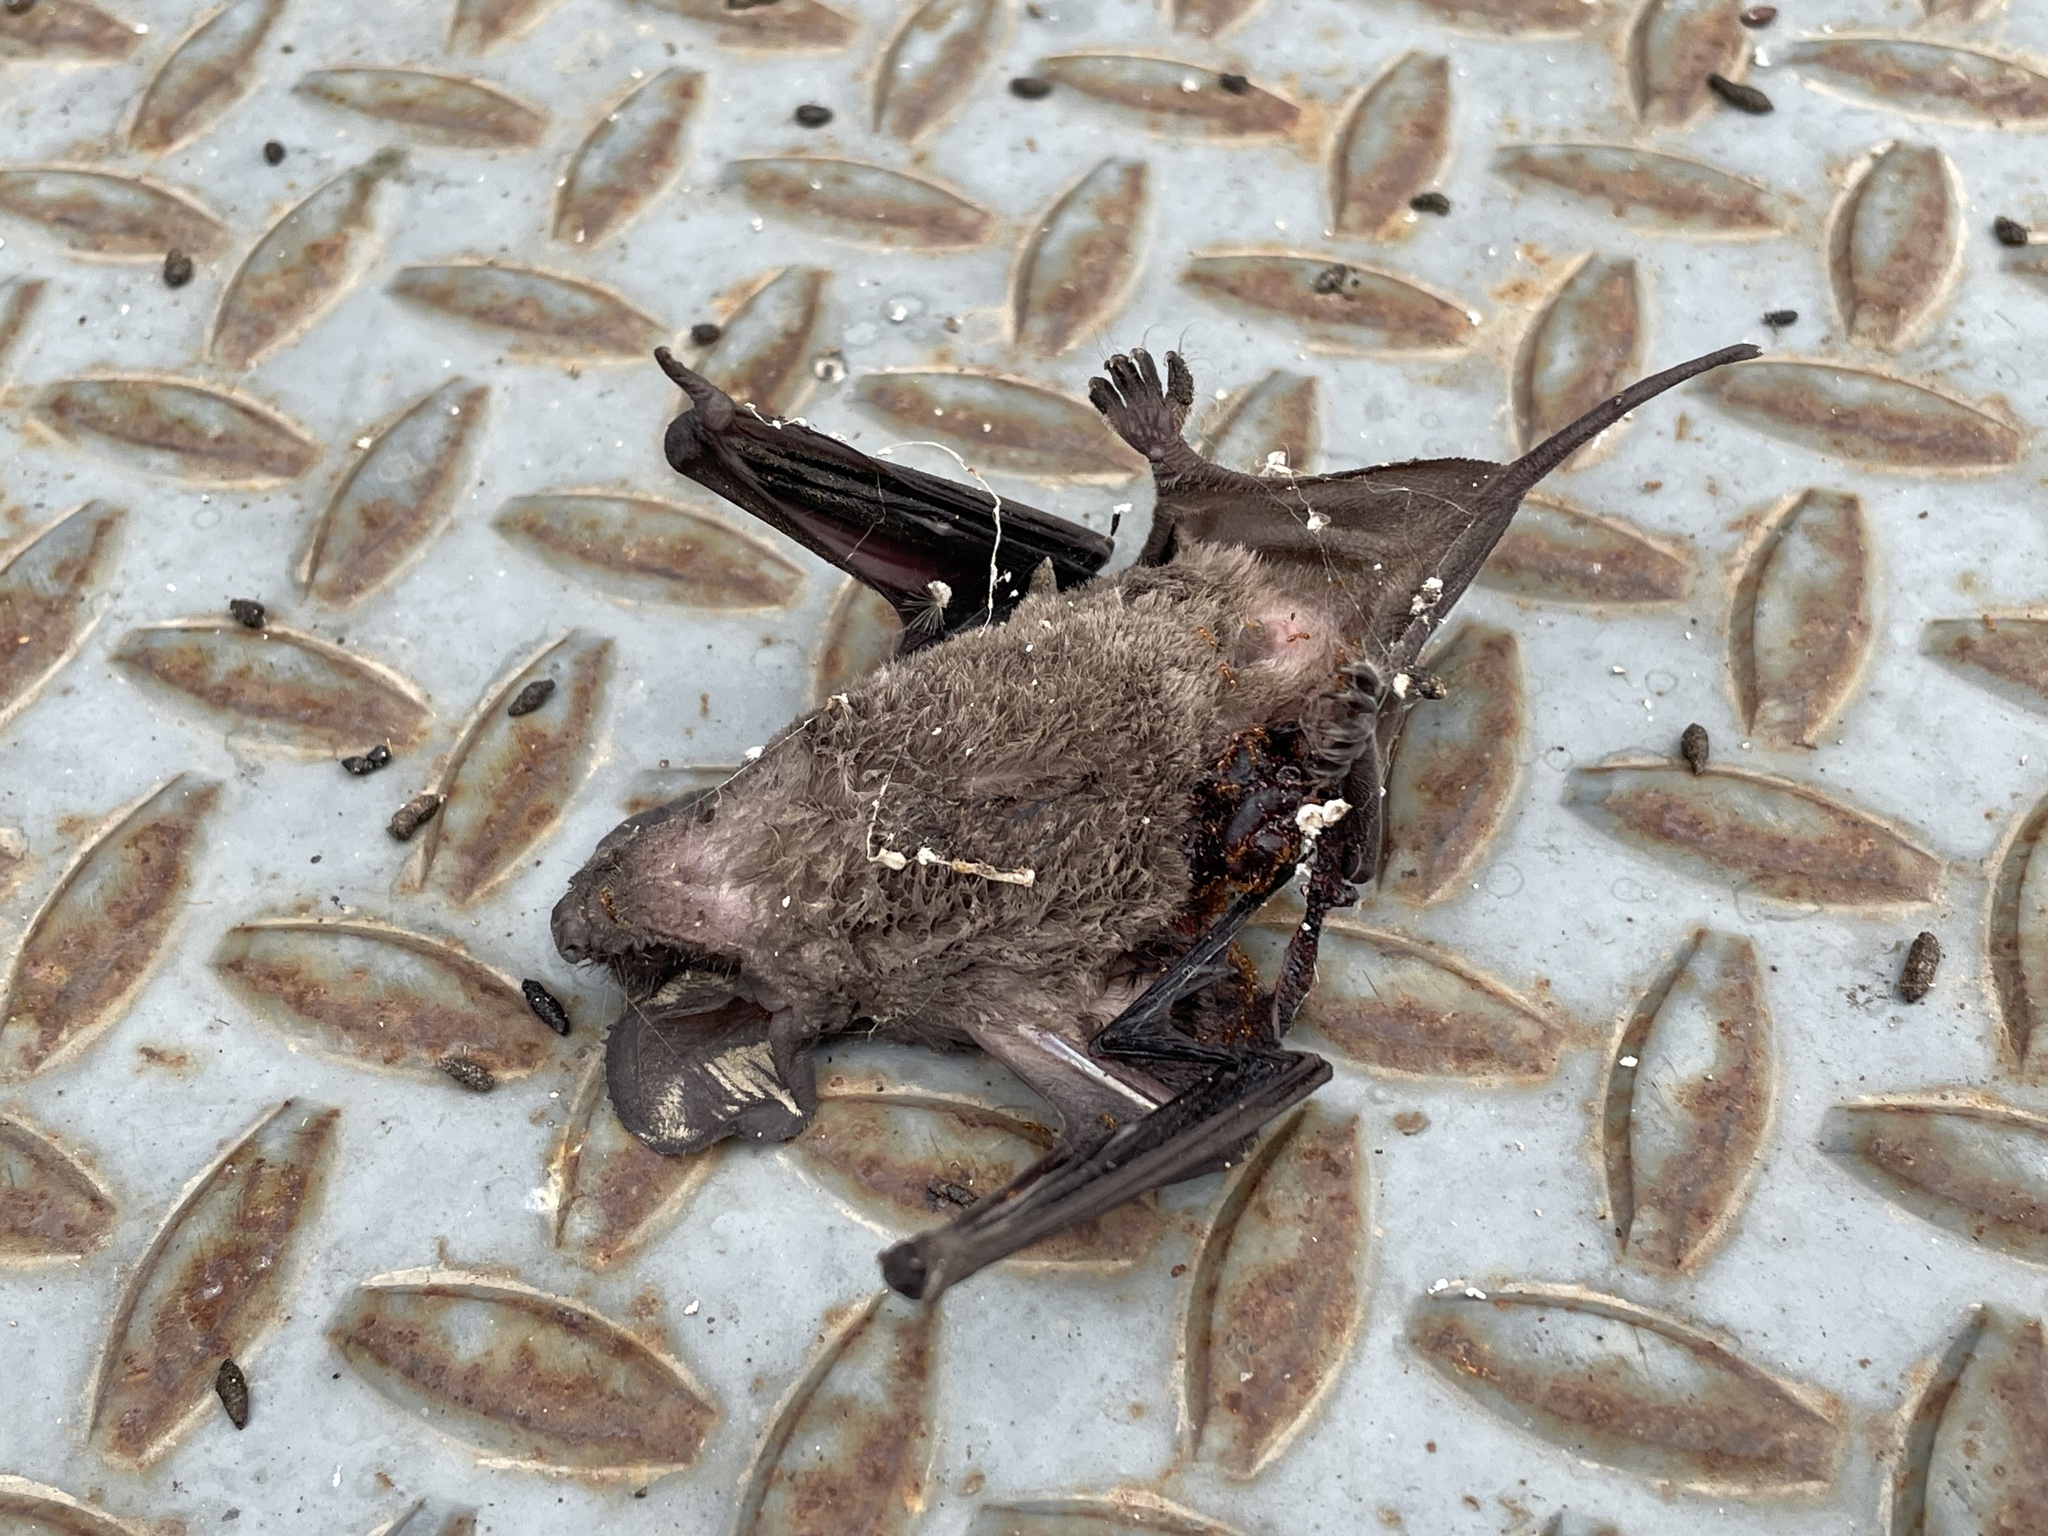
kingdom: Animalia
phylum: Chordata
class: Mammalia
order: Chiroptera
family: Molossidae
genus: Tadarida
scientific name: Tadarida brasiliensis
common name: Mexican free-tailed bat
